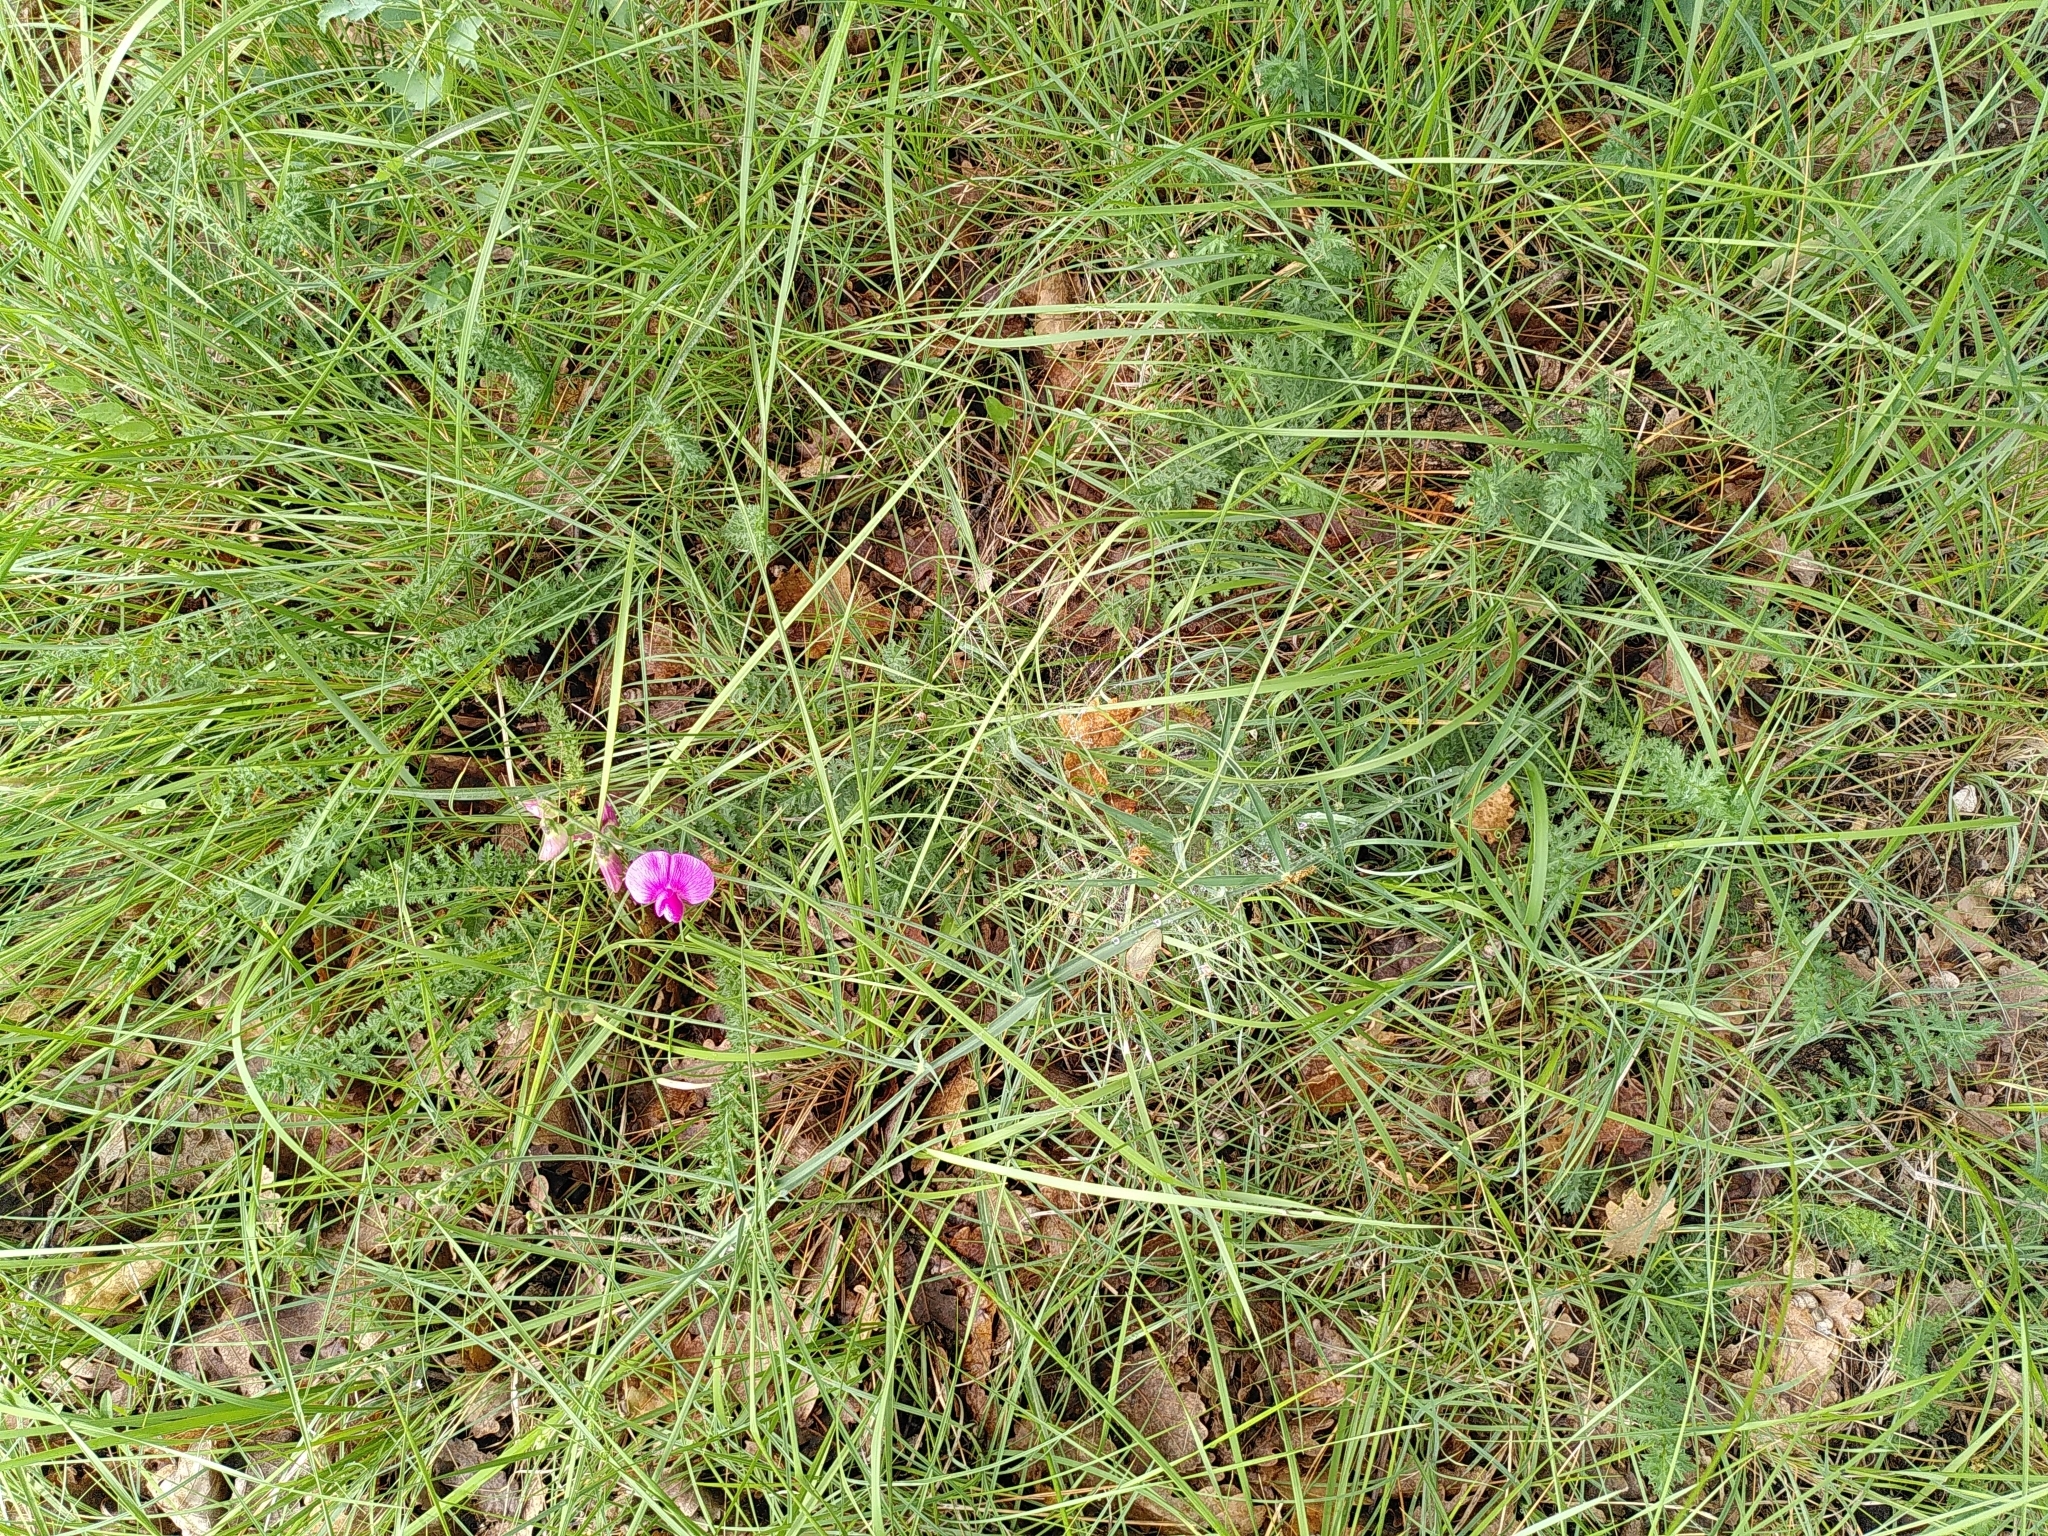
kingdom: Plantae
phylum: Tracheophyta
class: Magnoliopsida
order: Fabales
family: Fabaceae
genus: Lathyrus
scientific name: Lathyrus latifolius
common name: Perennial pea
